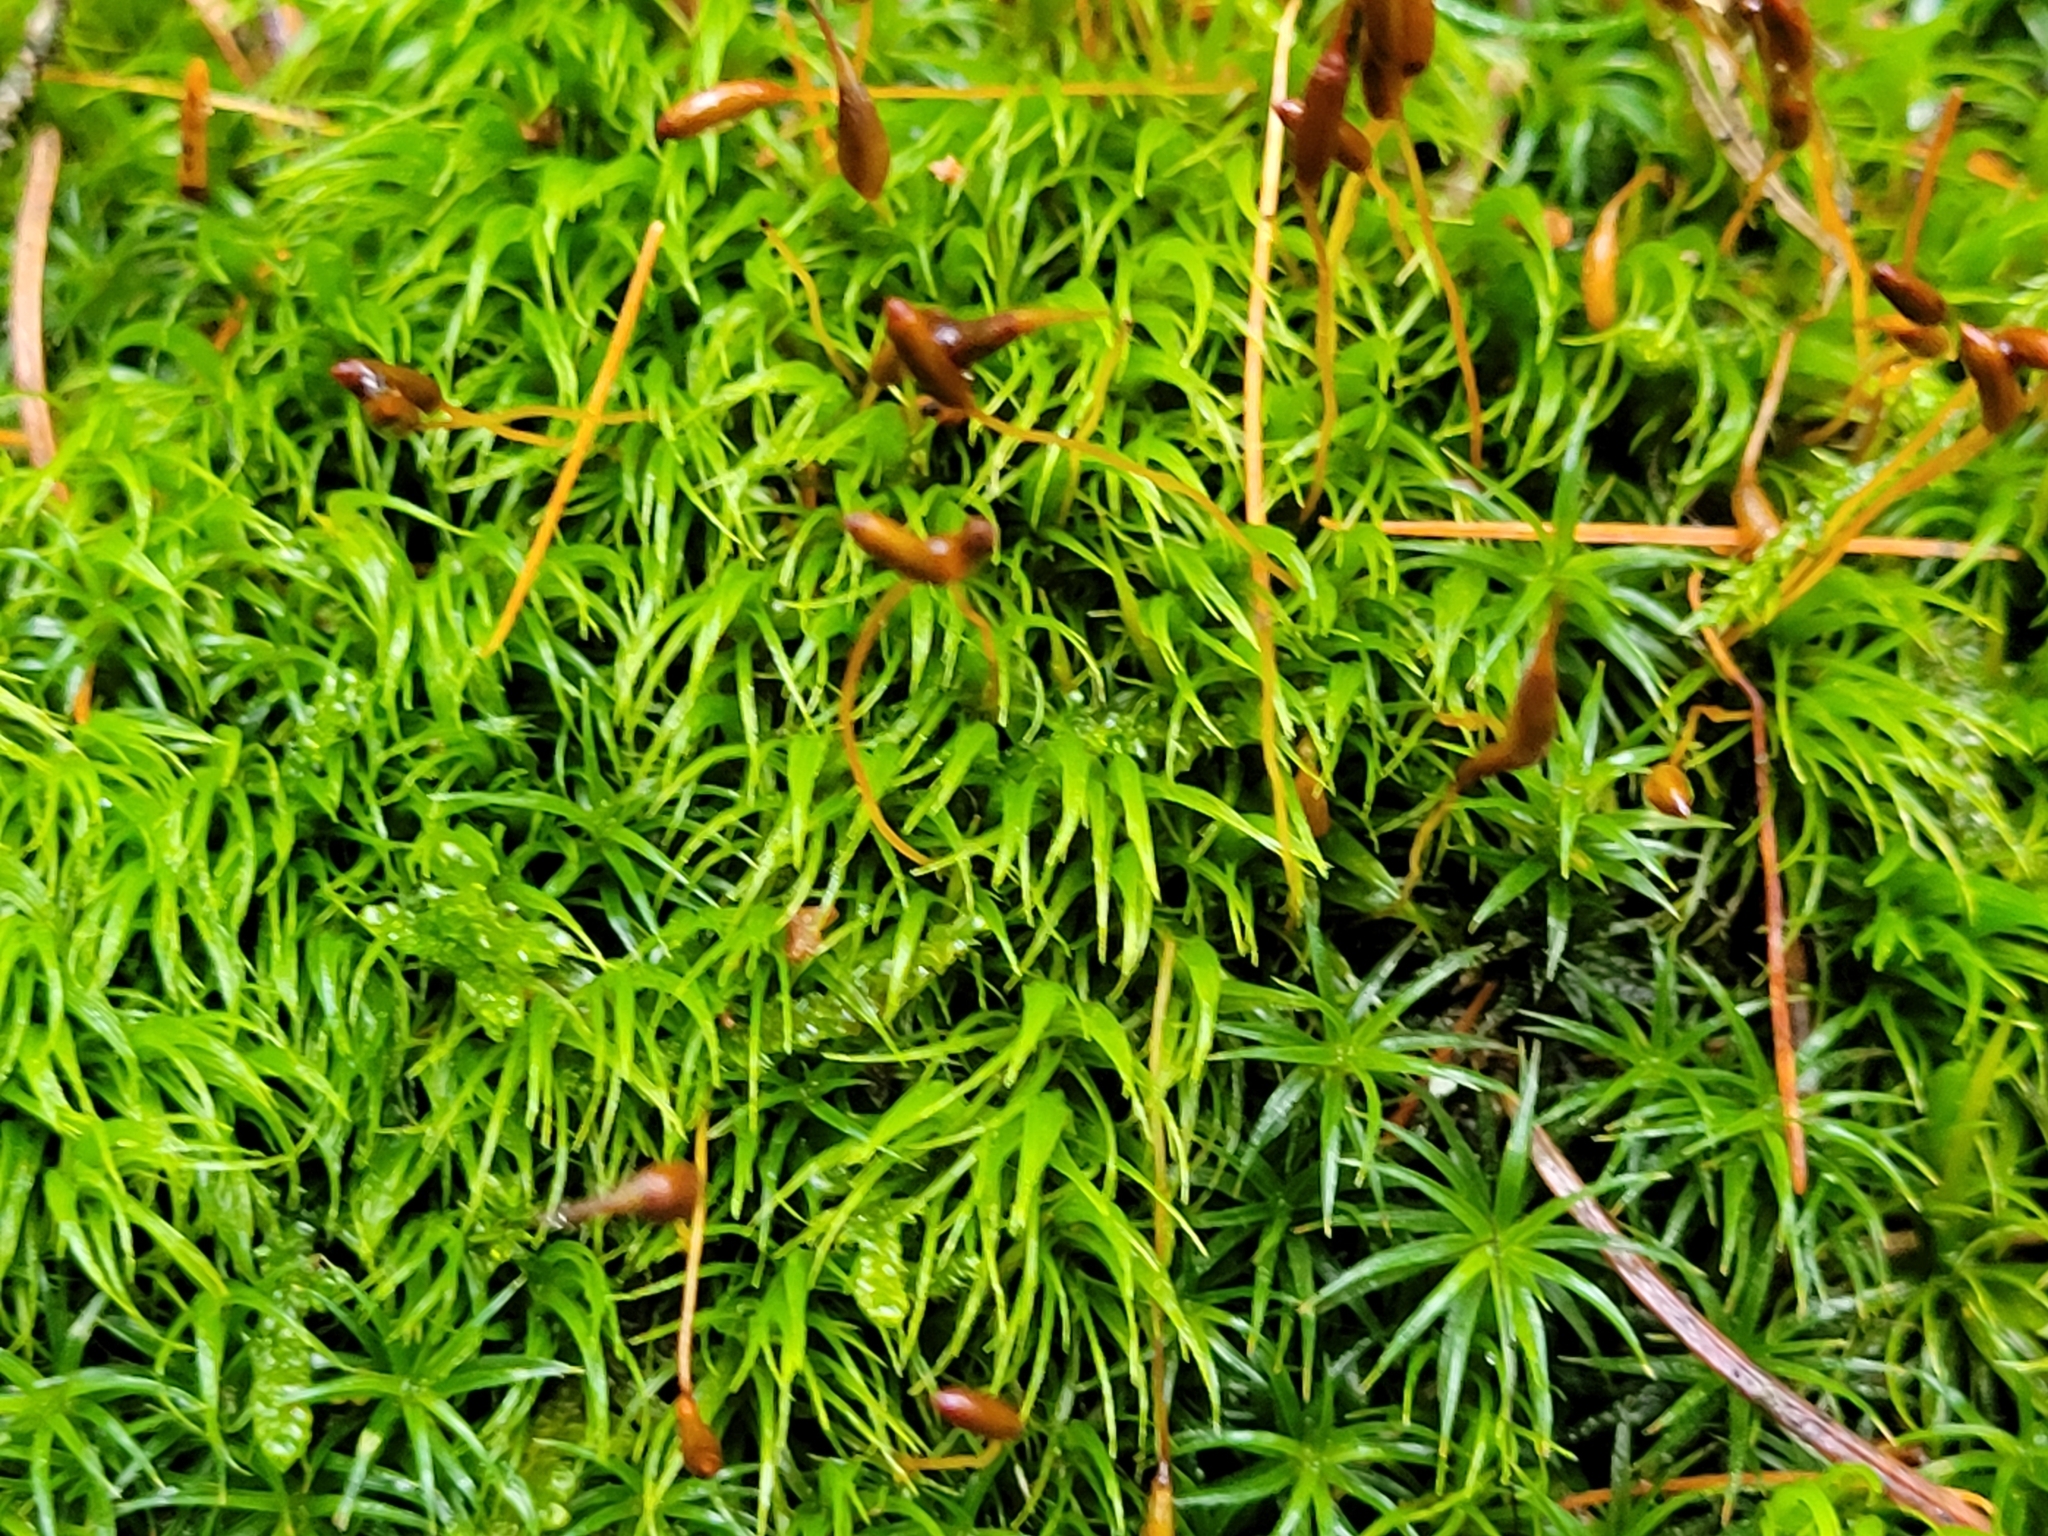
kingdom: Plantae
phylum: Bryophyta
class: Bryopsida
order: Dicranales
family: Dicranaceae
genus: Dicranum
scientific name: Dicranum scoparium
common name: Broom fork-moss
